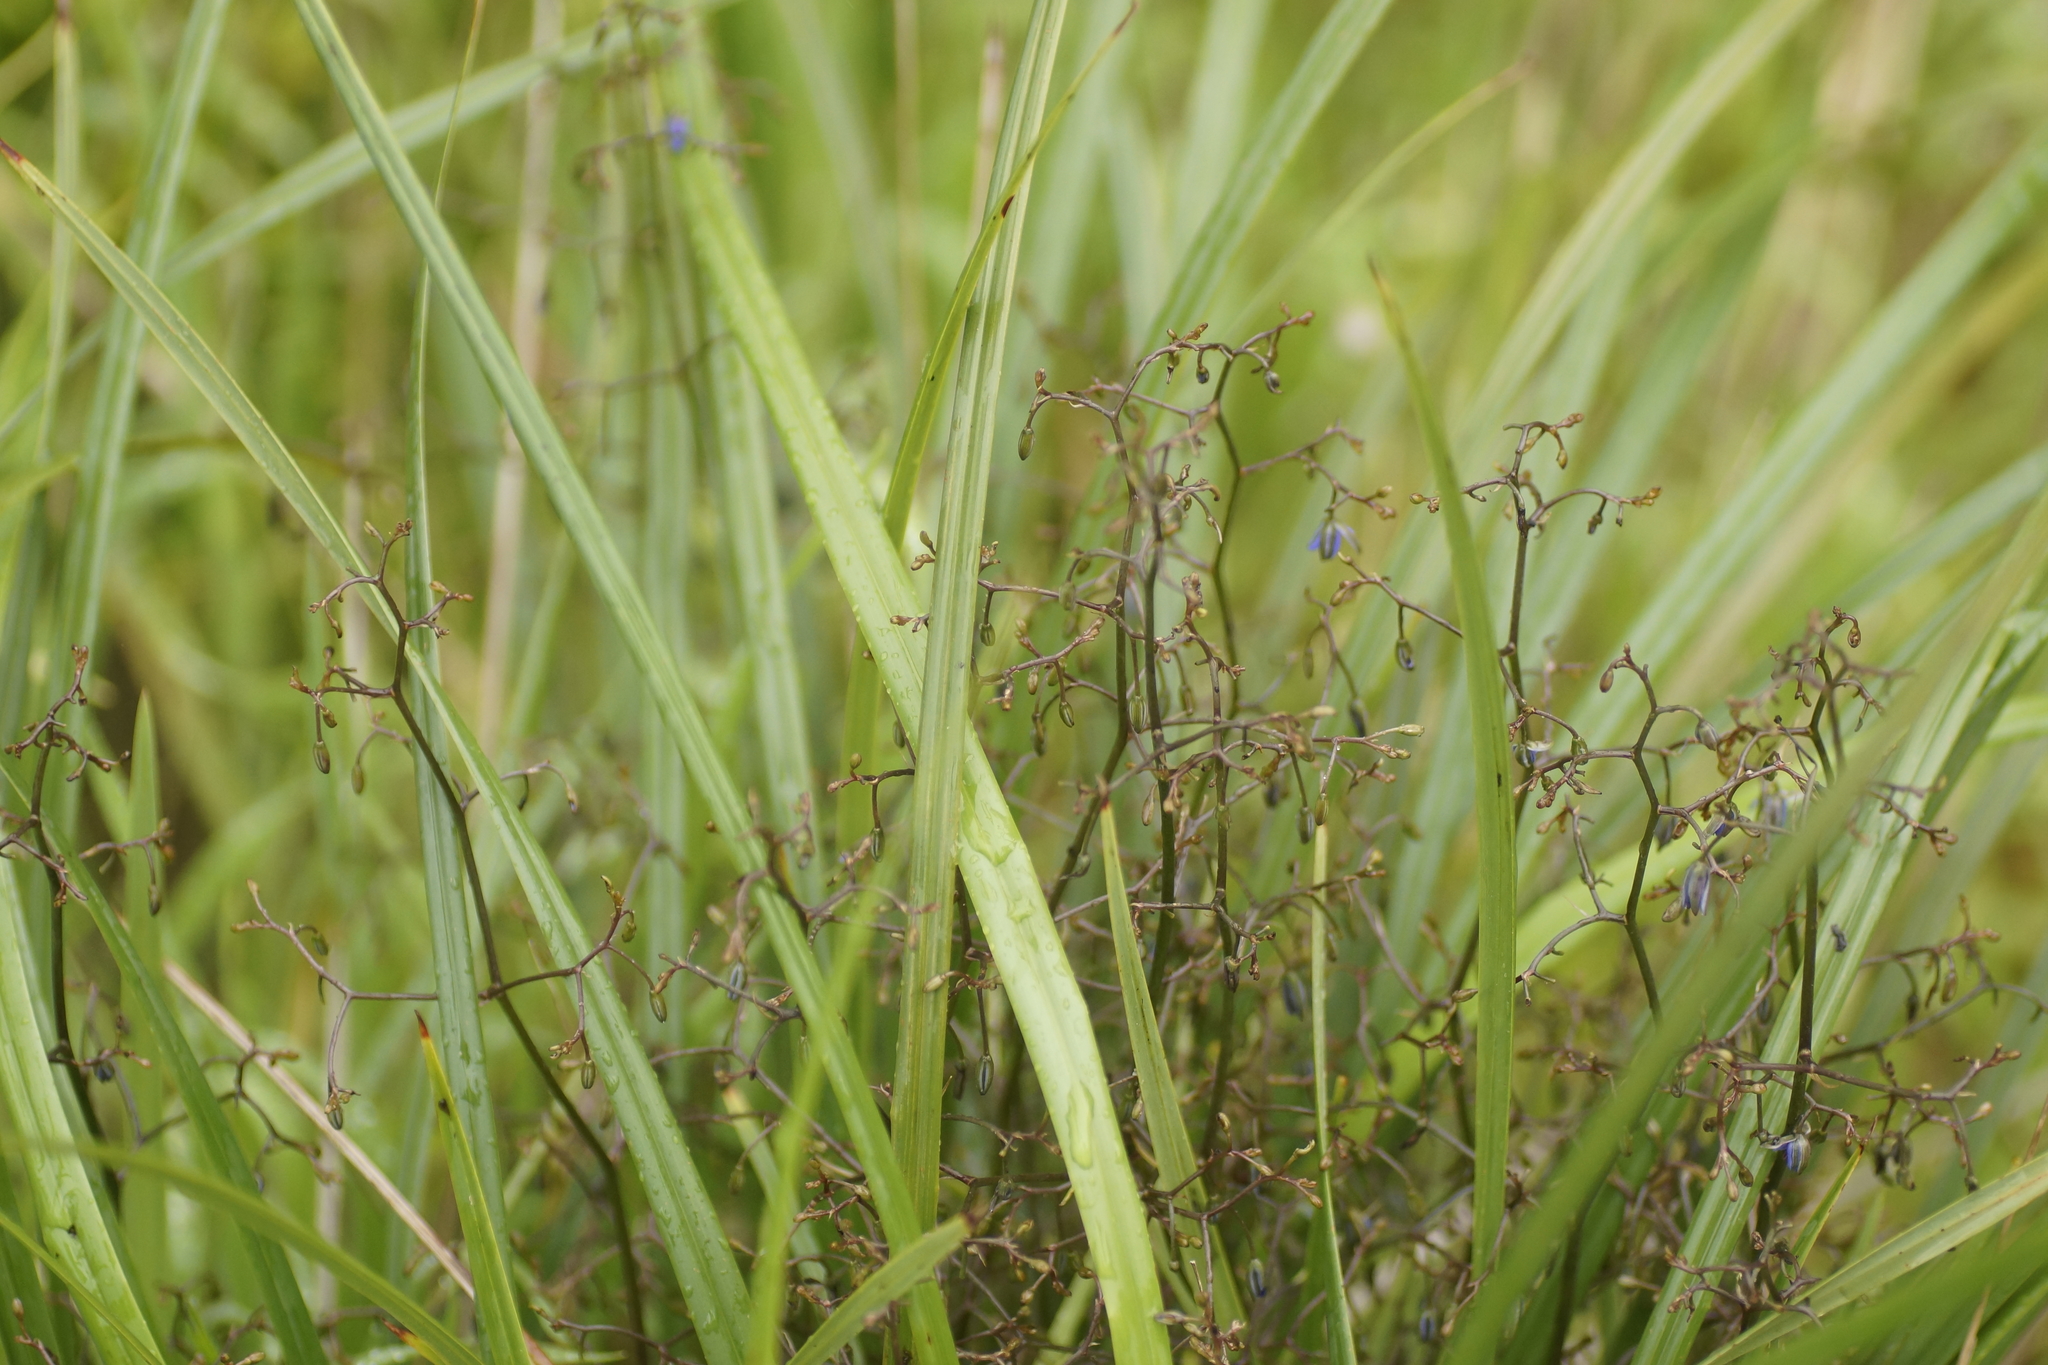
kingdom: Plantae
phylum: Tracheophyta
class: Liliopsida
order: Asparagales
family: Asphodelaceae
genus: Dianella
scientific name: Dianella brevicaulis
